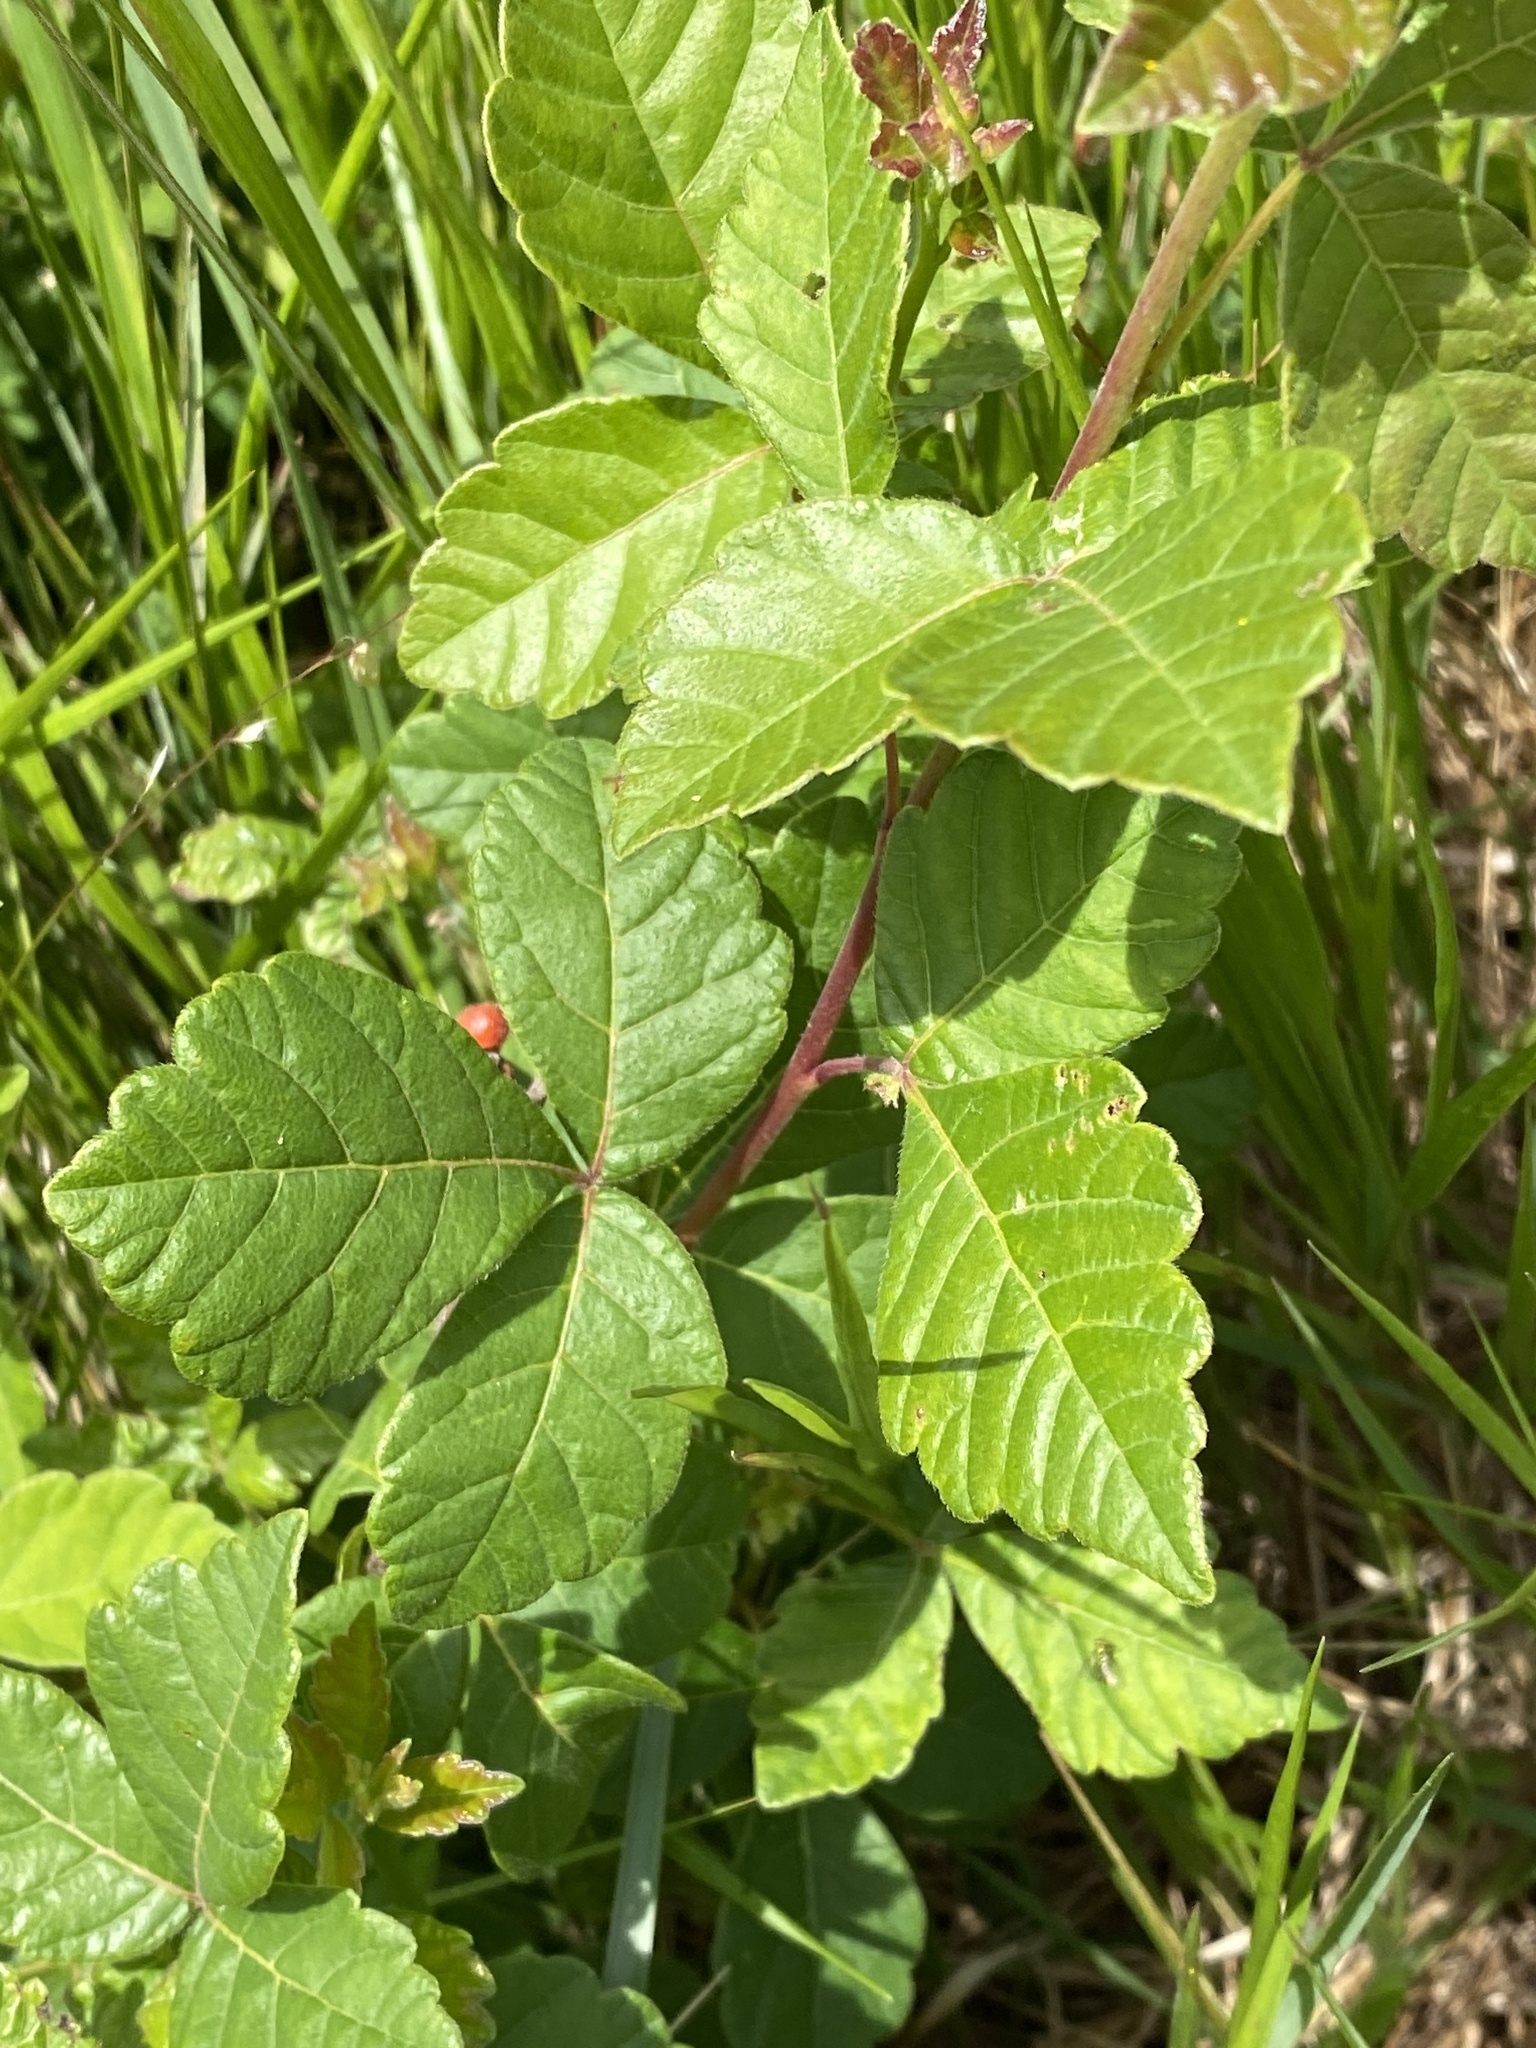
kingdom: Plantae
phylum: Tracheophyta
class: Magnoliopsida
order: Sapindales
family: Anacardiaceae
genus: Rhus
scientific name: Rhus aromatica
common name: Aromatic sumac
